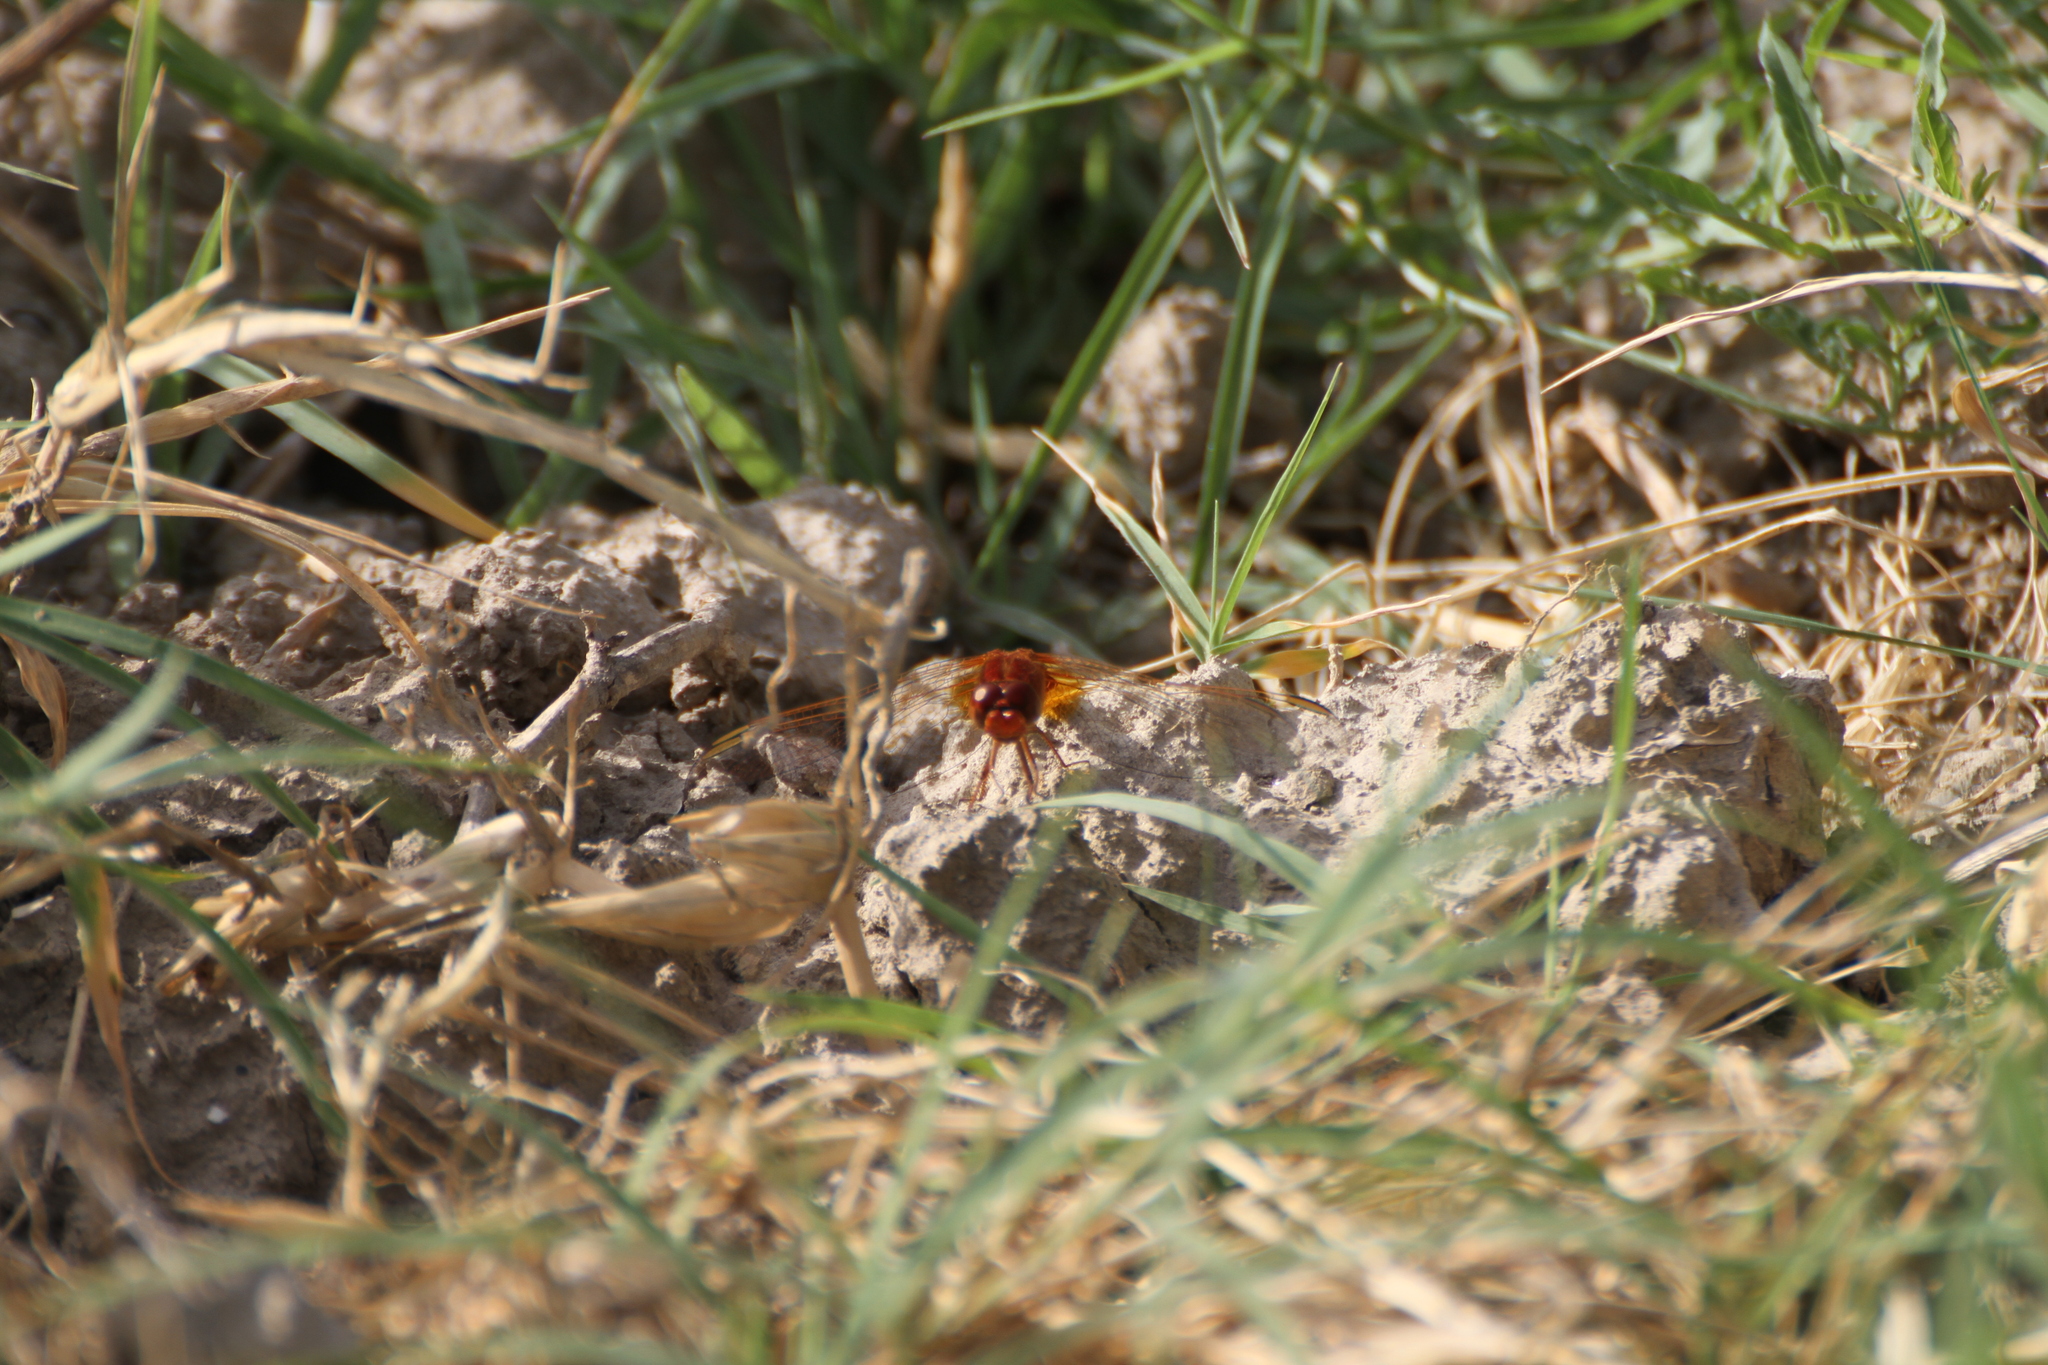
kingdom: Animalia
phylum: Arthropoda
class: Insecta
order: Odonata
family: Libellulidae
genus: Crocothemis
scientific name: Crocothemis erythraea
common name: Scarlet dragonfly
